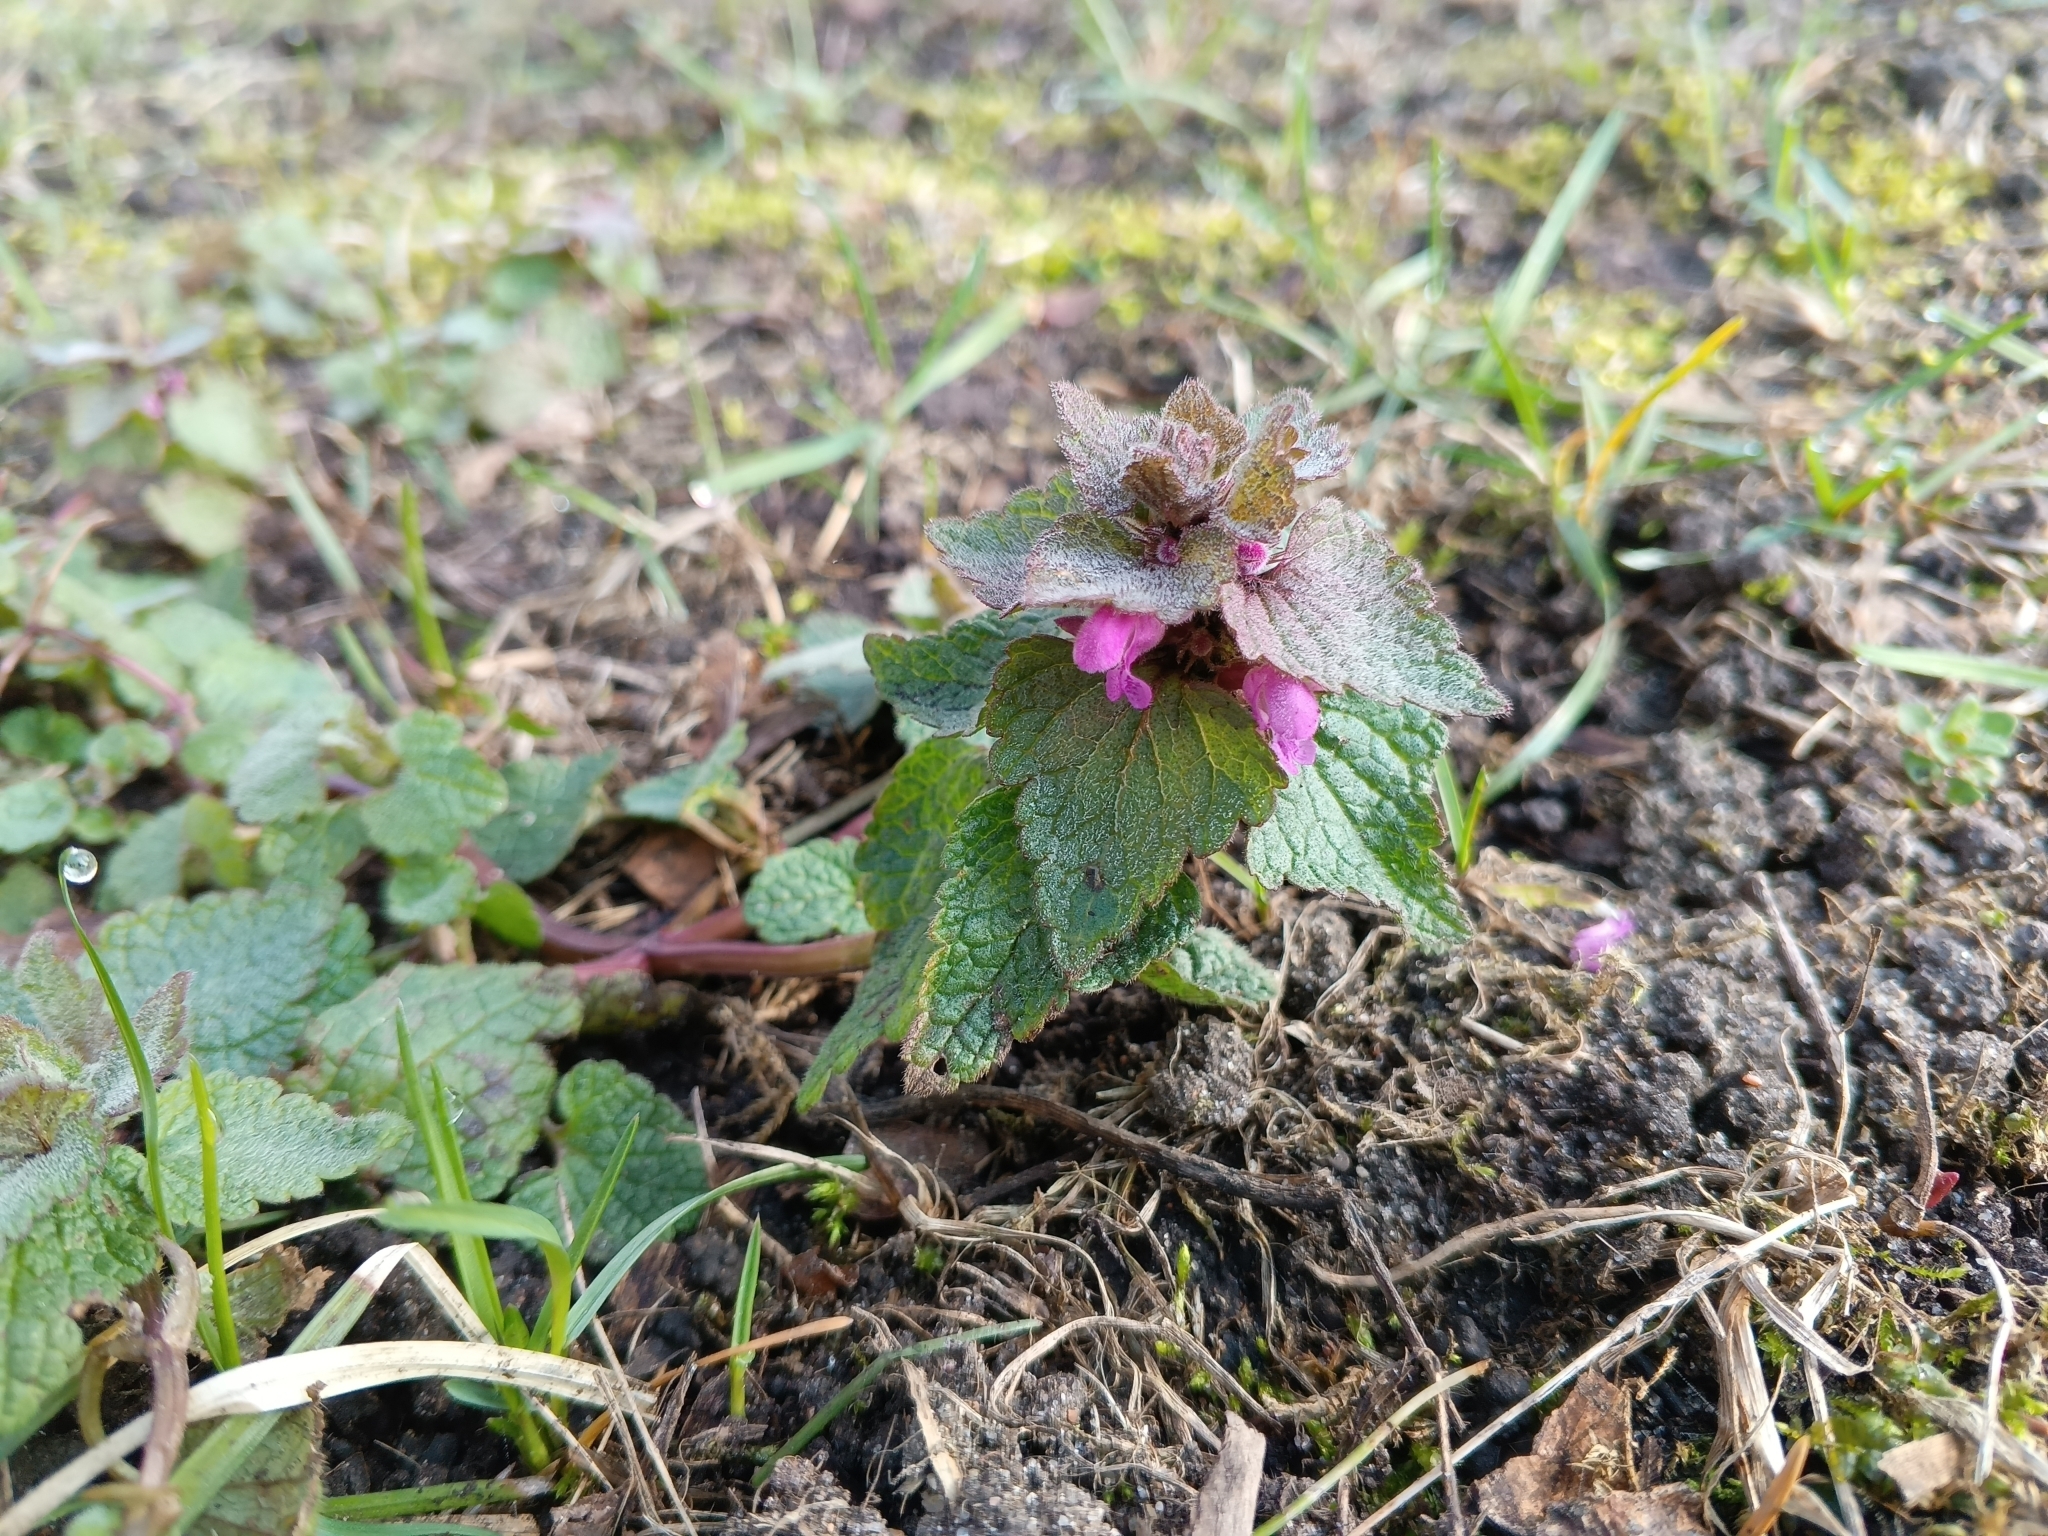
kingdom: Plantae
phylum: Tracheophyta
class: Magnoliopsida
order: Lamiales
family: Lamiaceae
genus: Lamium
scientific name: Lamium purpureum
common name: Red dead-nettle
